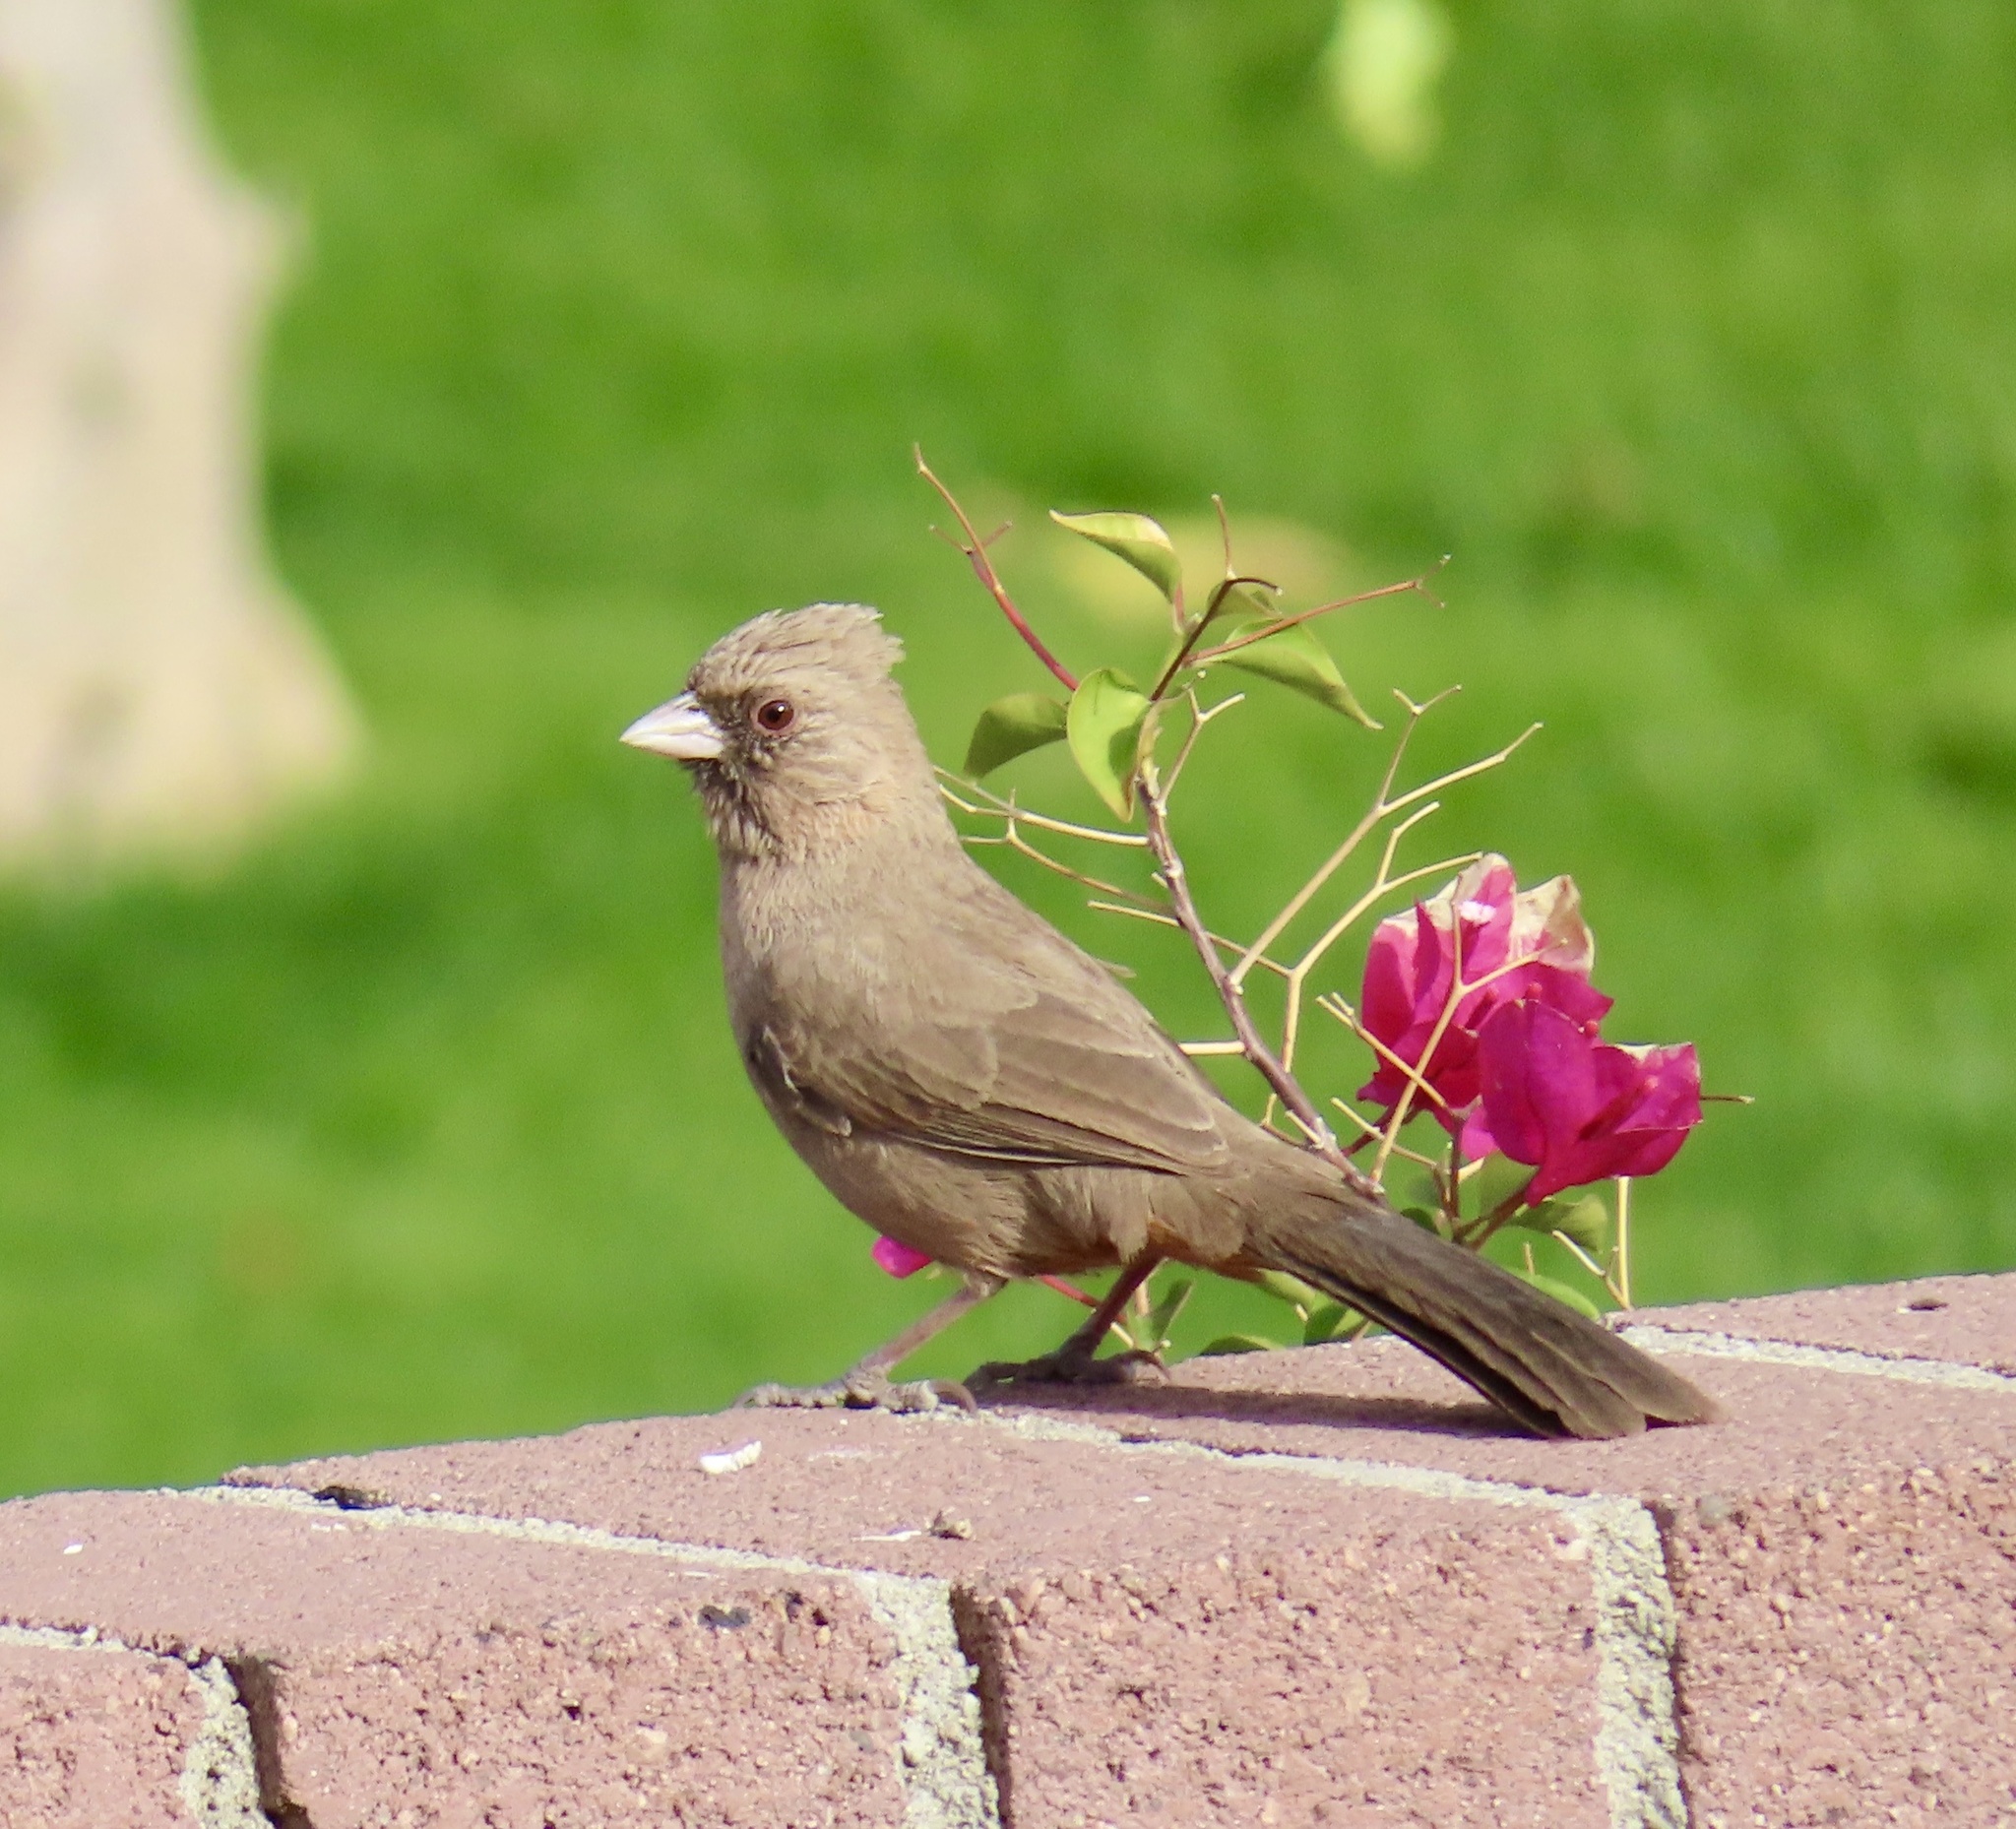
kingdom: Animalia
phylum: Chordata
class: Aves
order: Passeriformes
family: Passerellidae
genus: Melozone
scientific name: Melozone aberti
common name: Abert's towhee
